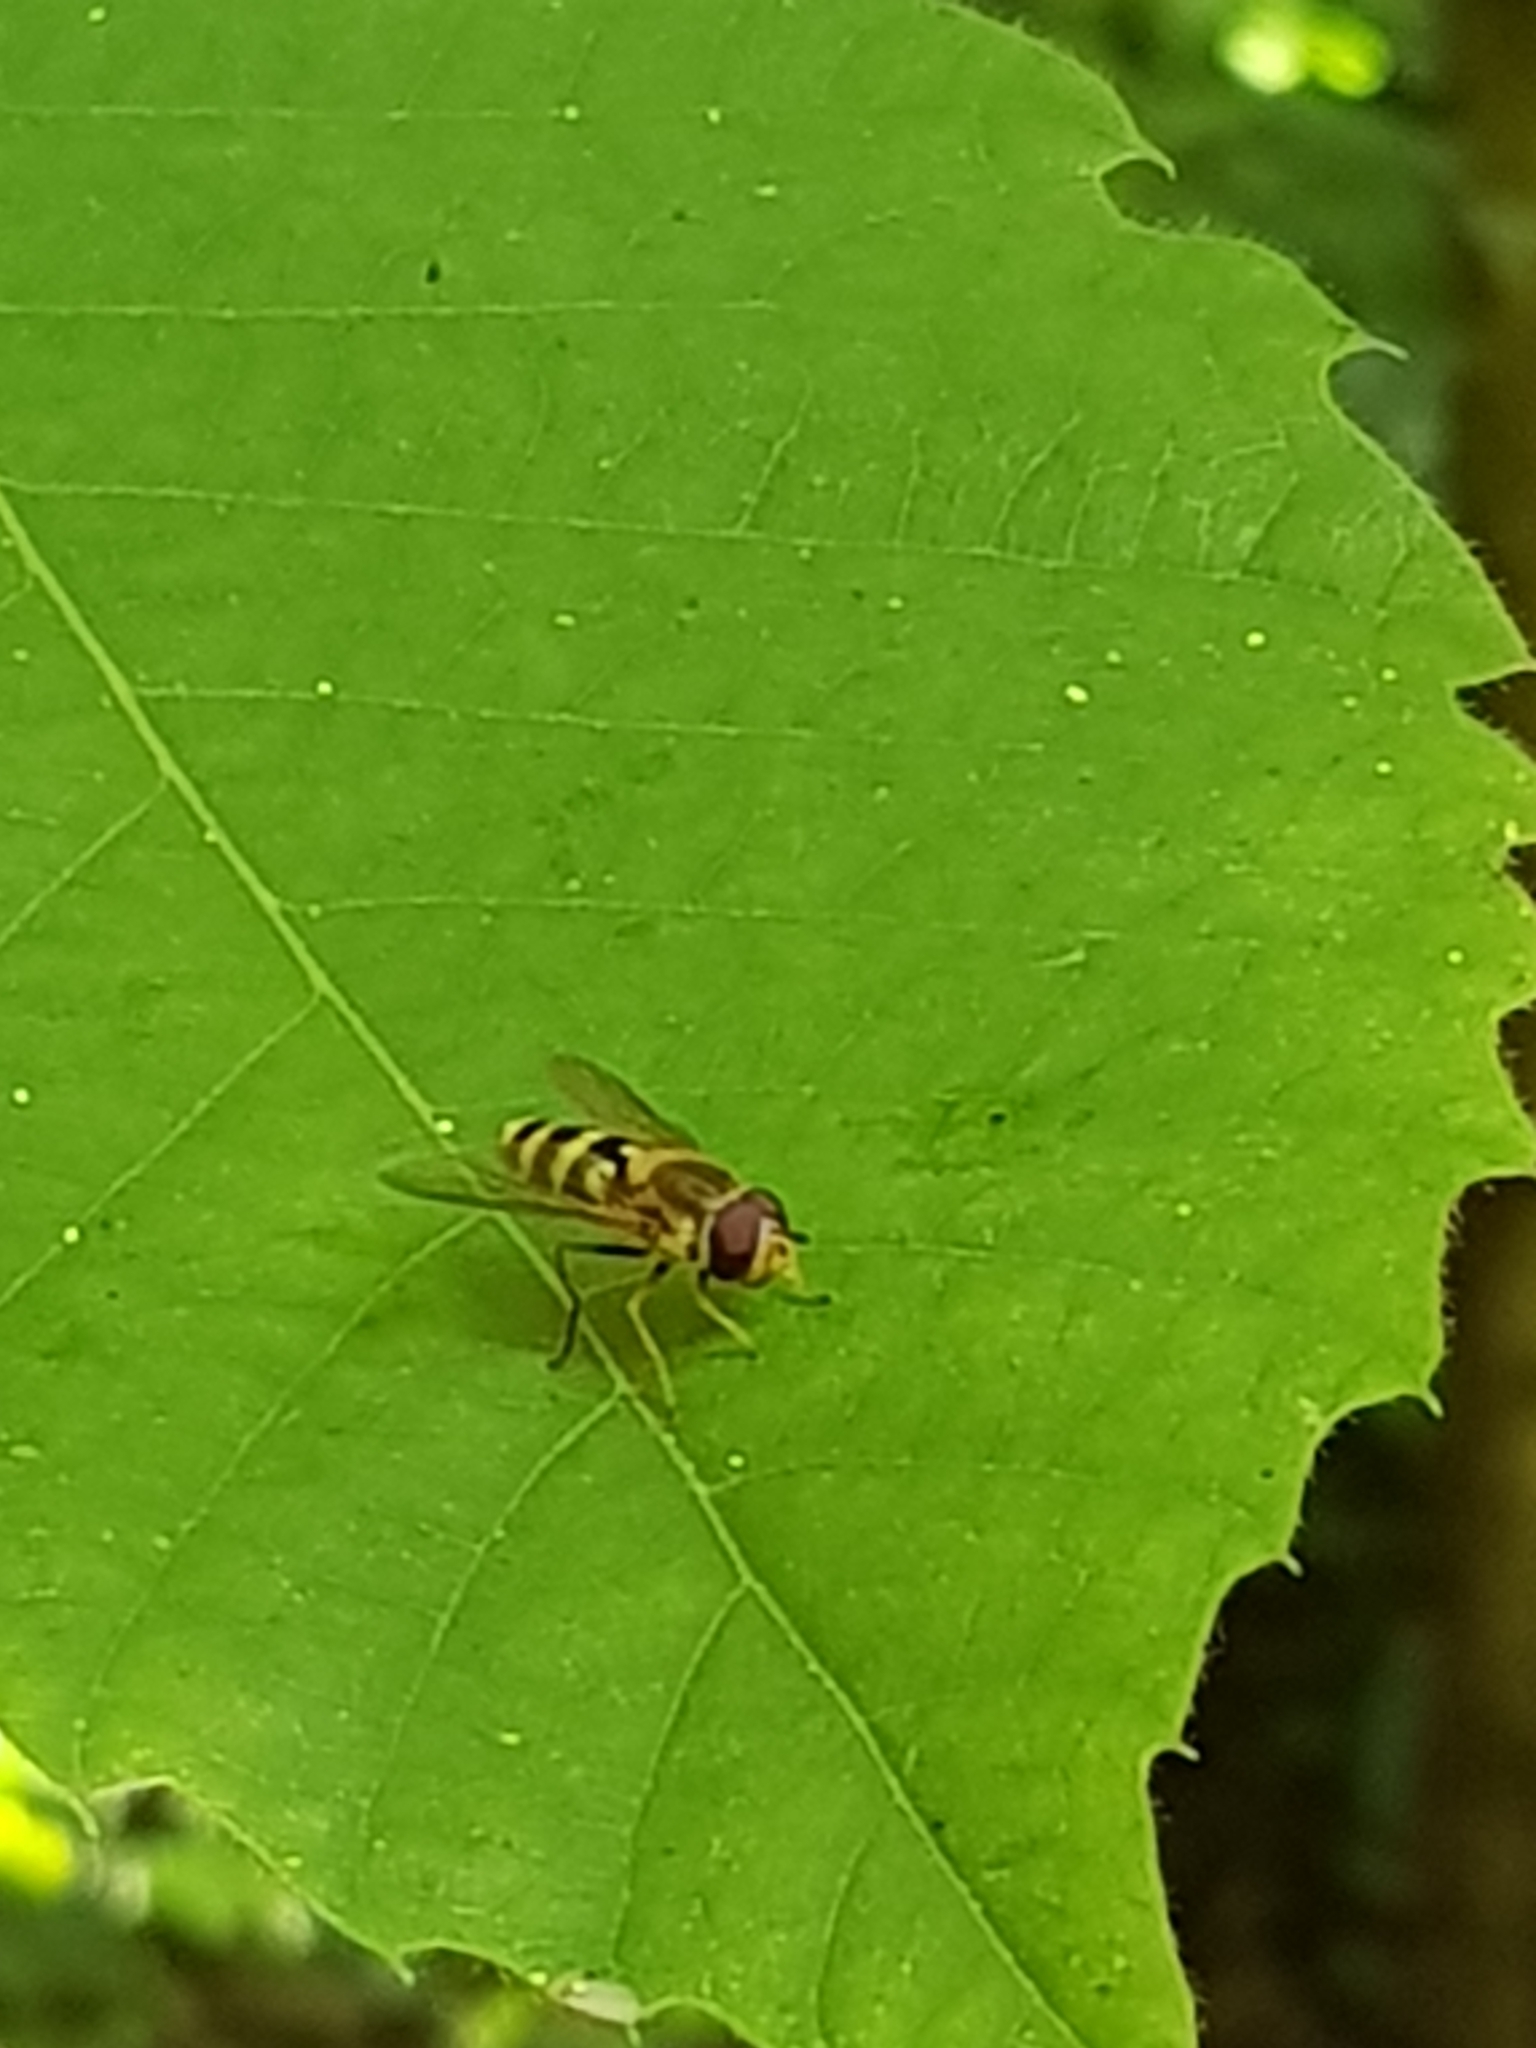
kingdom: Animalia
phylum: Arthropoda
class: Insecta
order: Diptera
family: Syrphidae
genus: Syrphus
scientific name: Syrphus
